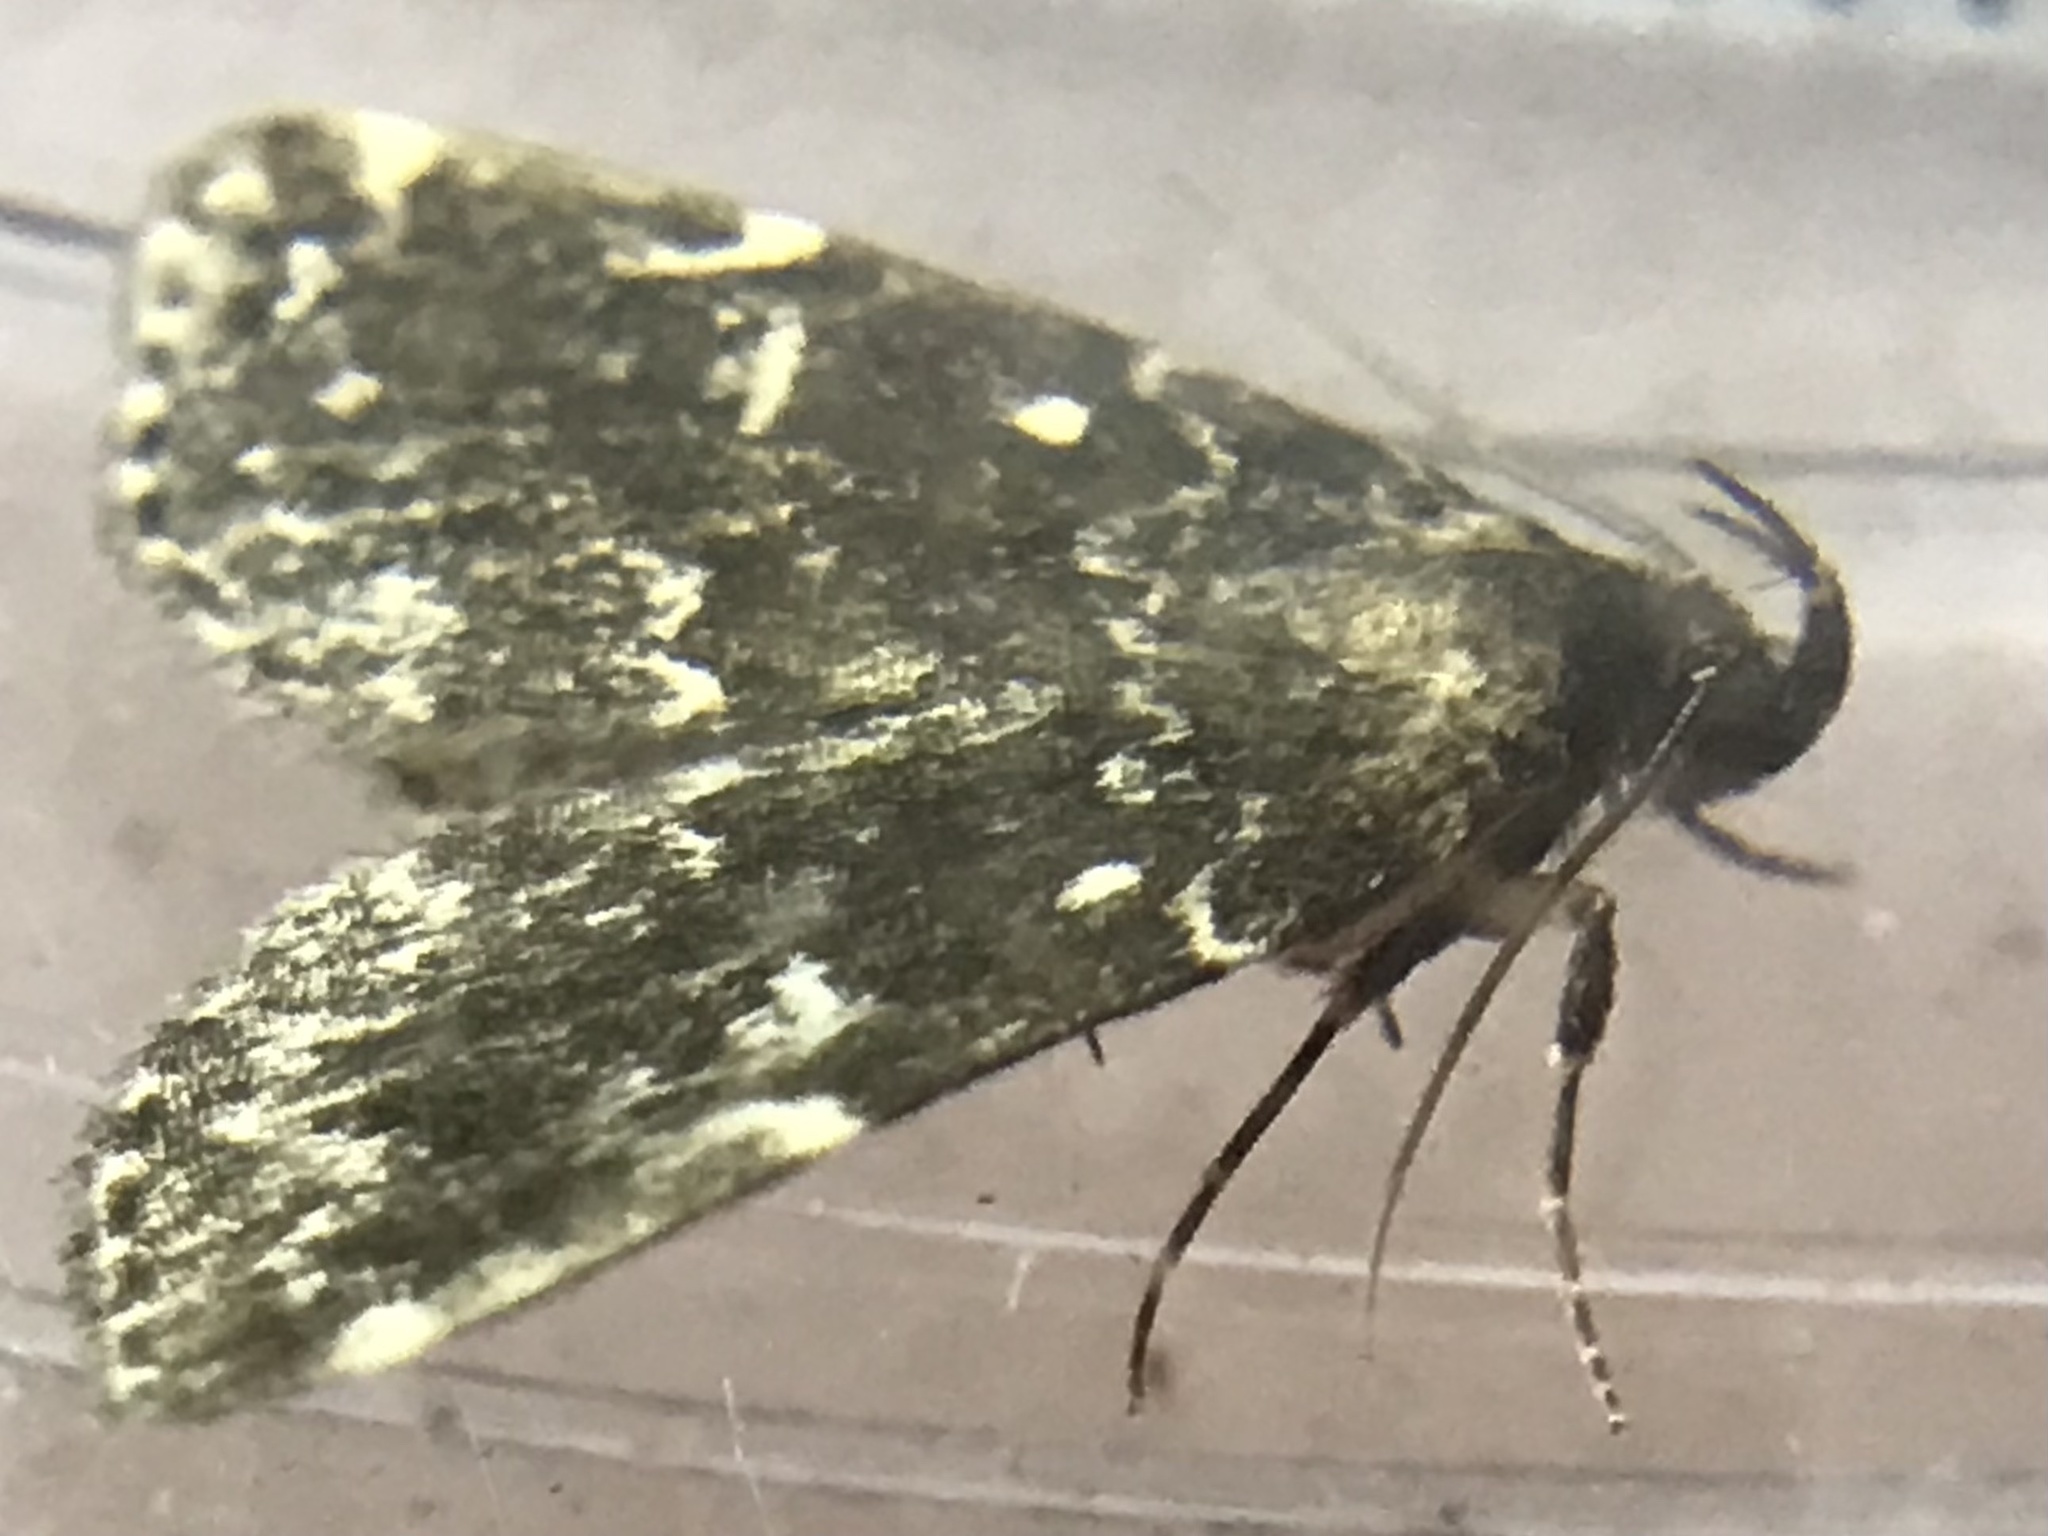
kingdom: Animalia
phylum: Arthropoda
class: Insecta
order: Lepidoptera
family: Erebidae
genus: Idia
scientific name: Idia scobialis
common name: Smoky idia moth
